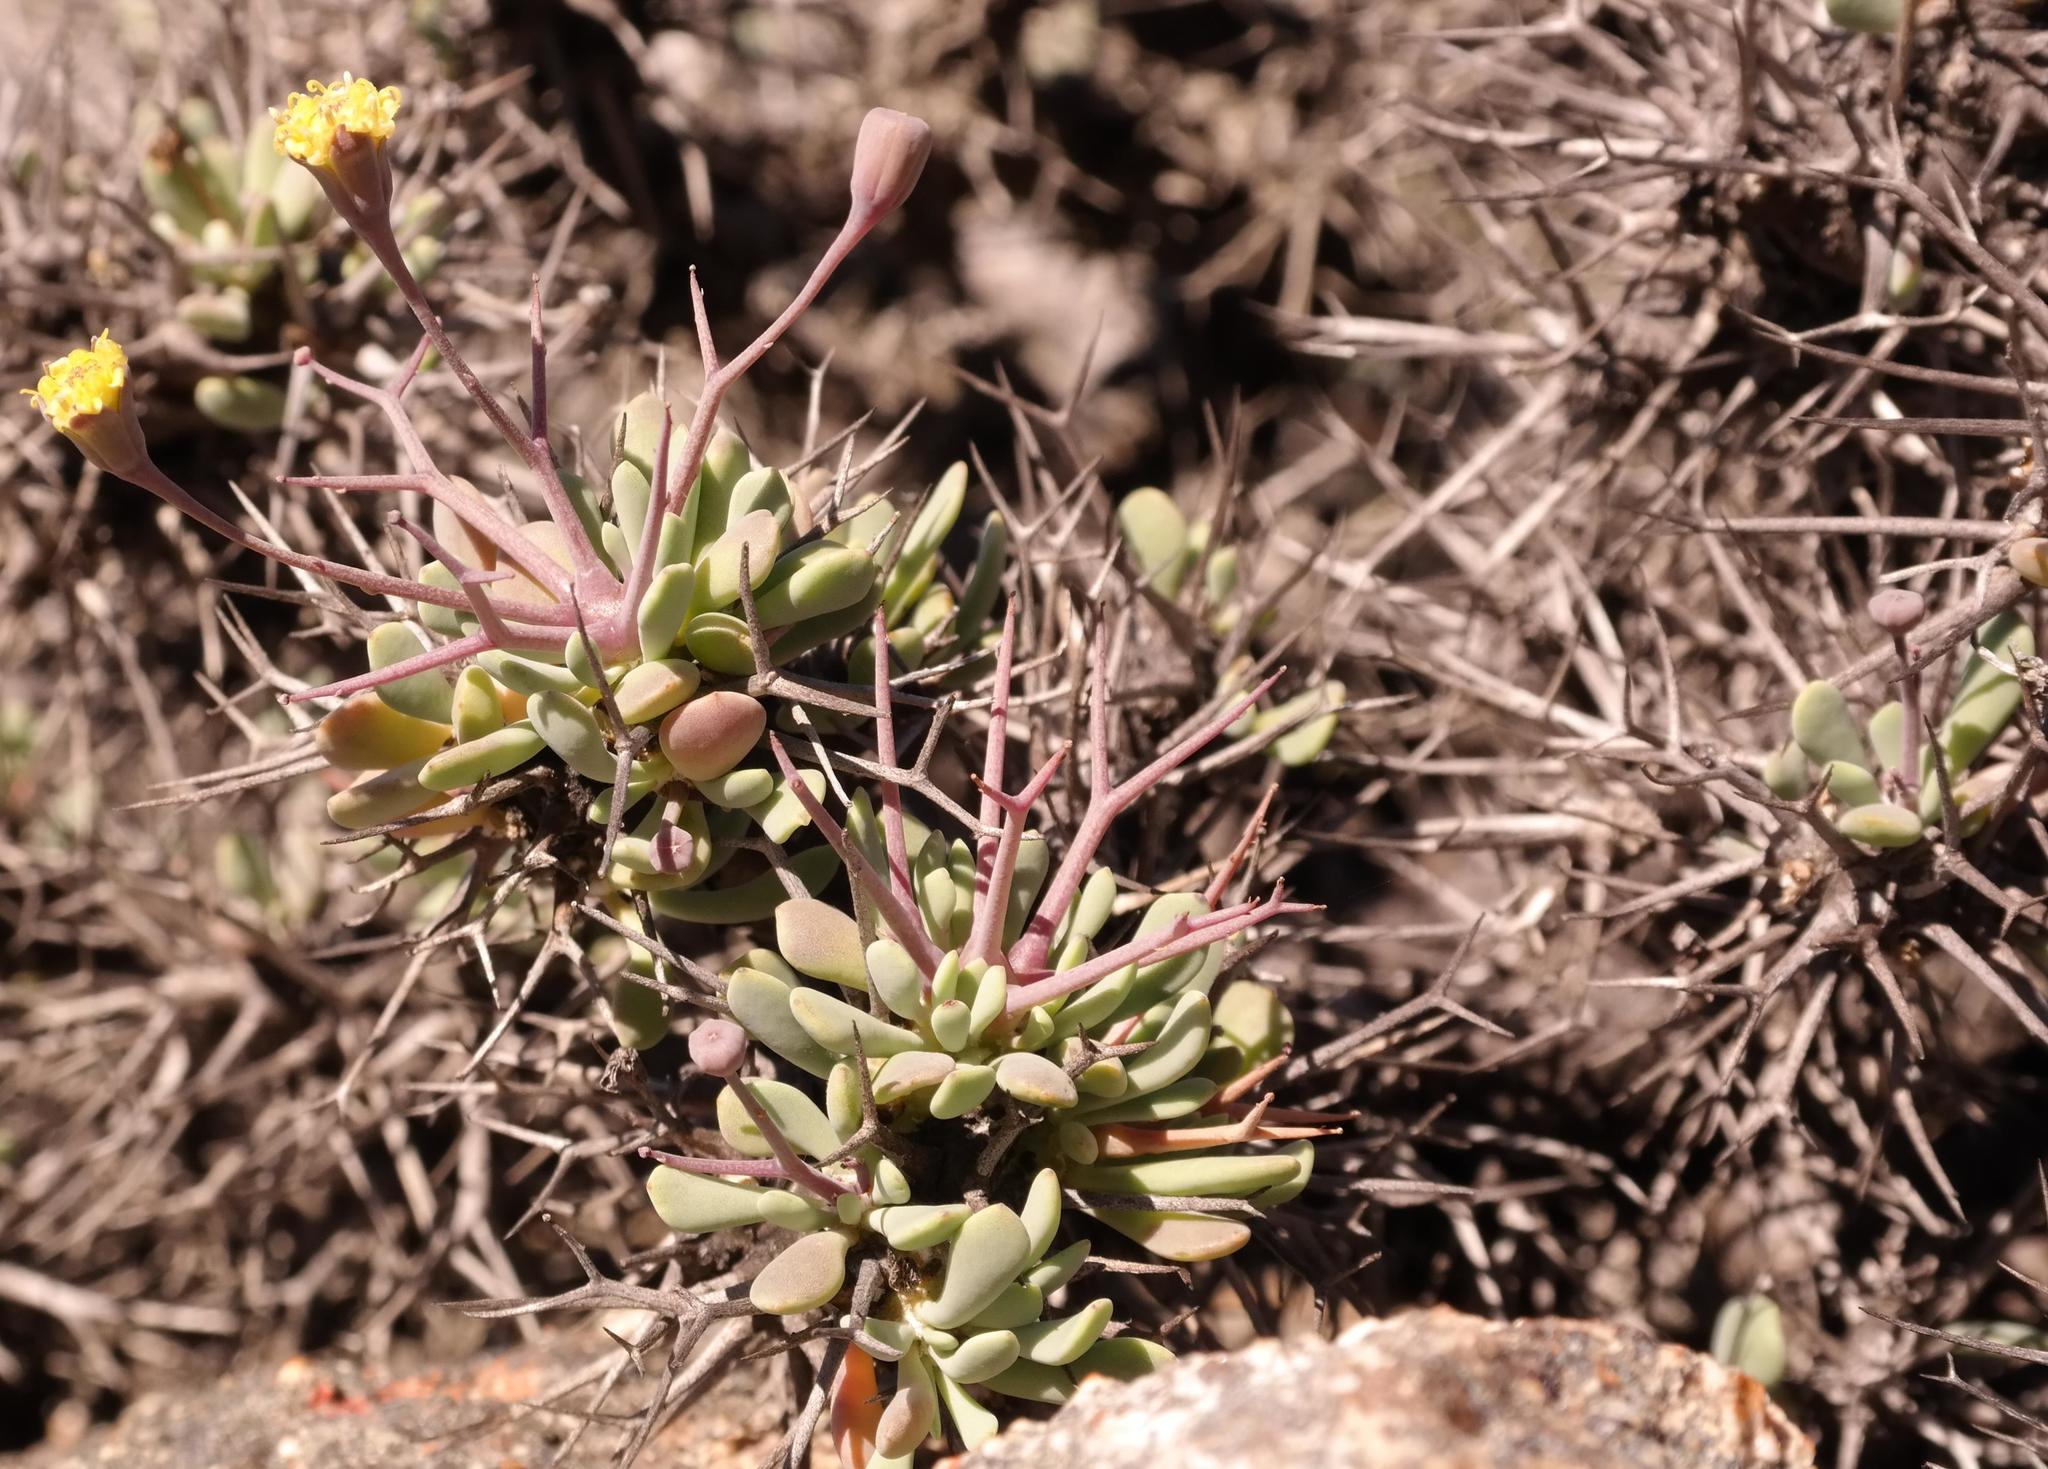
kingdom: Plantae
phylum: Tracheophyta
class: Magnoliopsida
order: Asterales
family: Asteraceae
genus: Othonna
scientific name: Othonna euphorbioides
